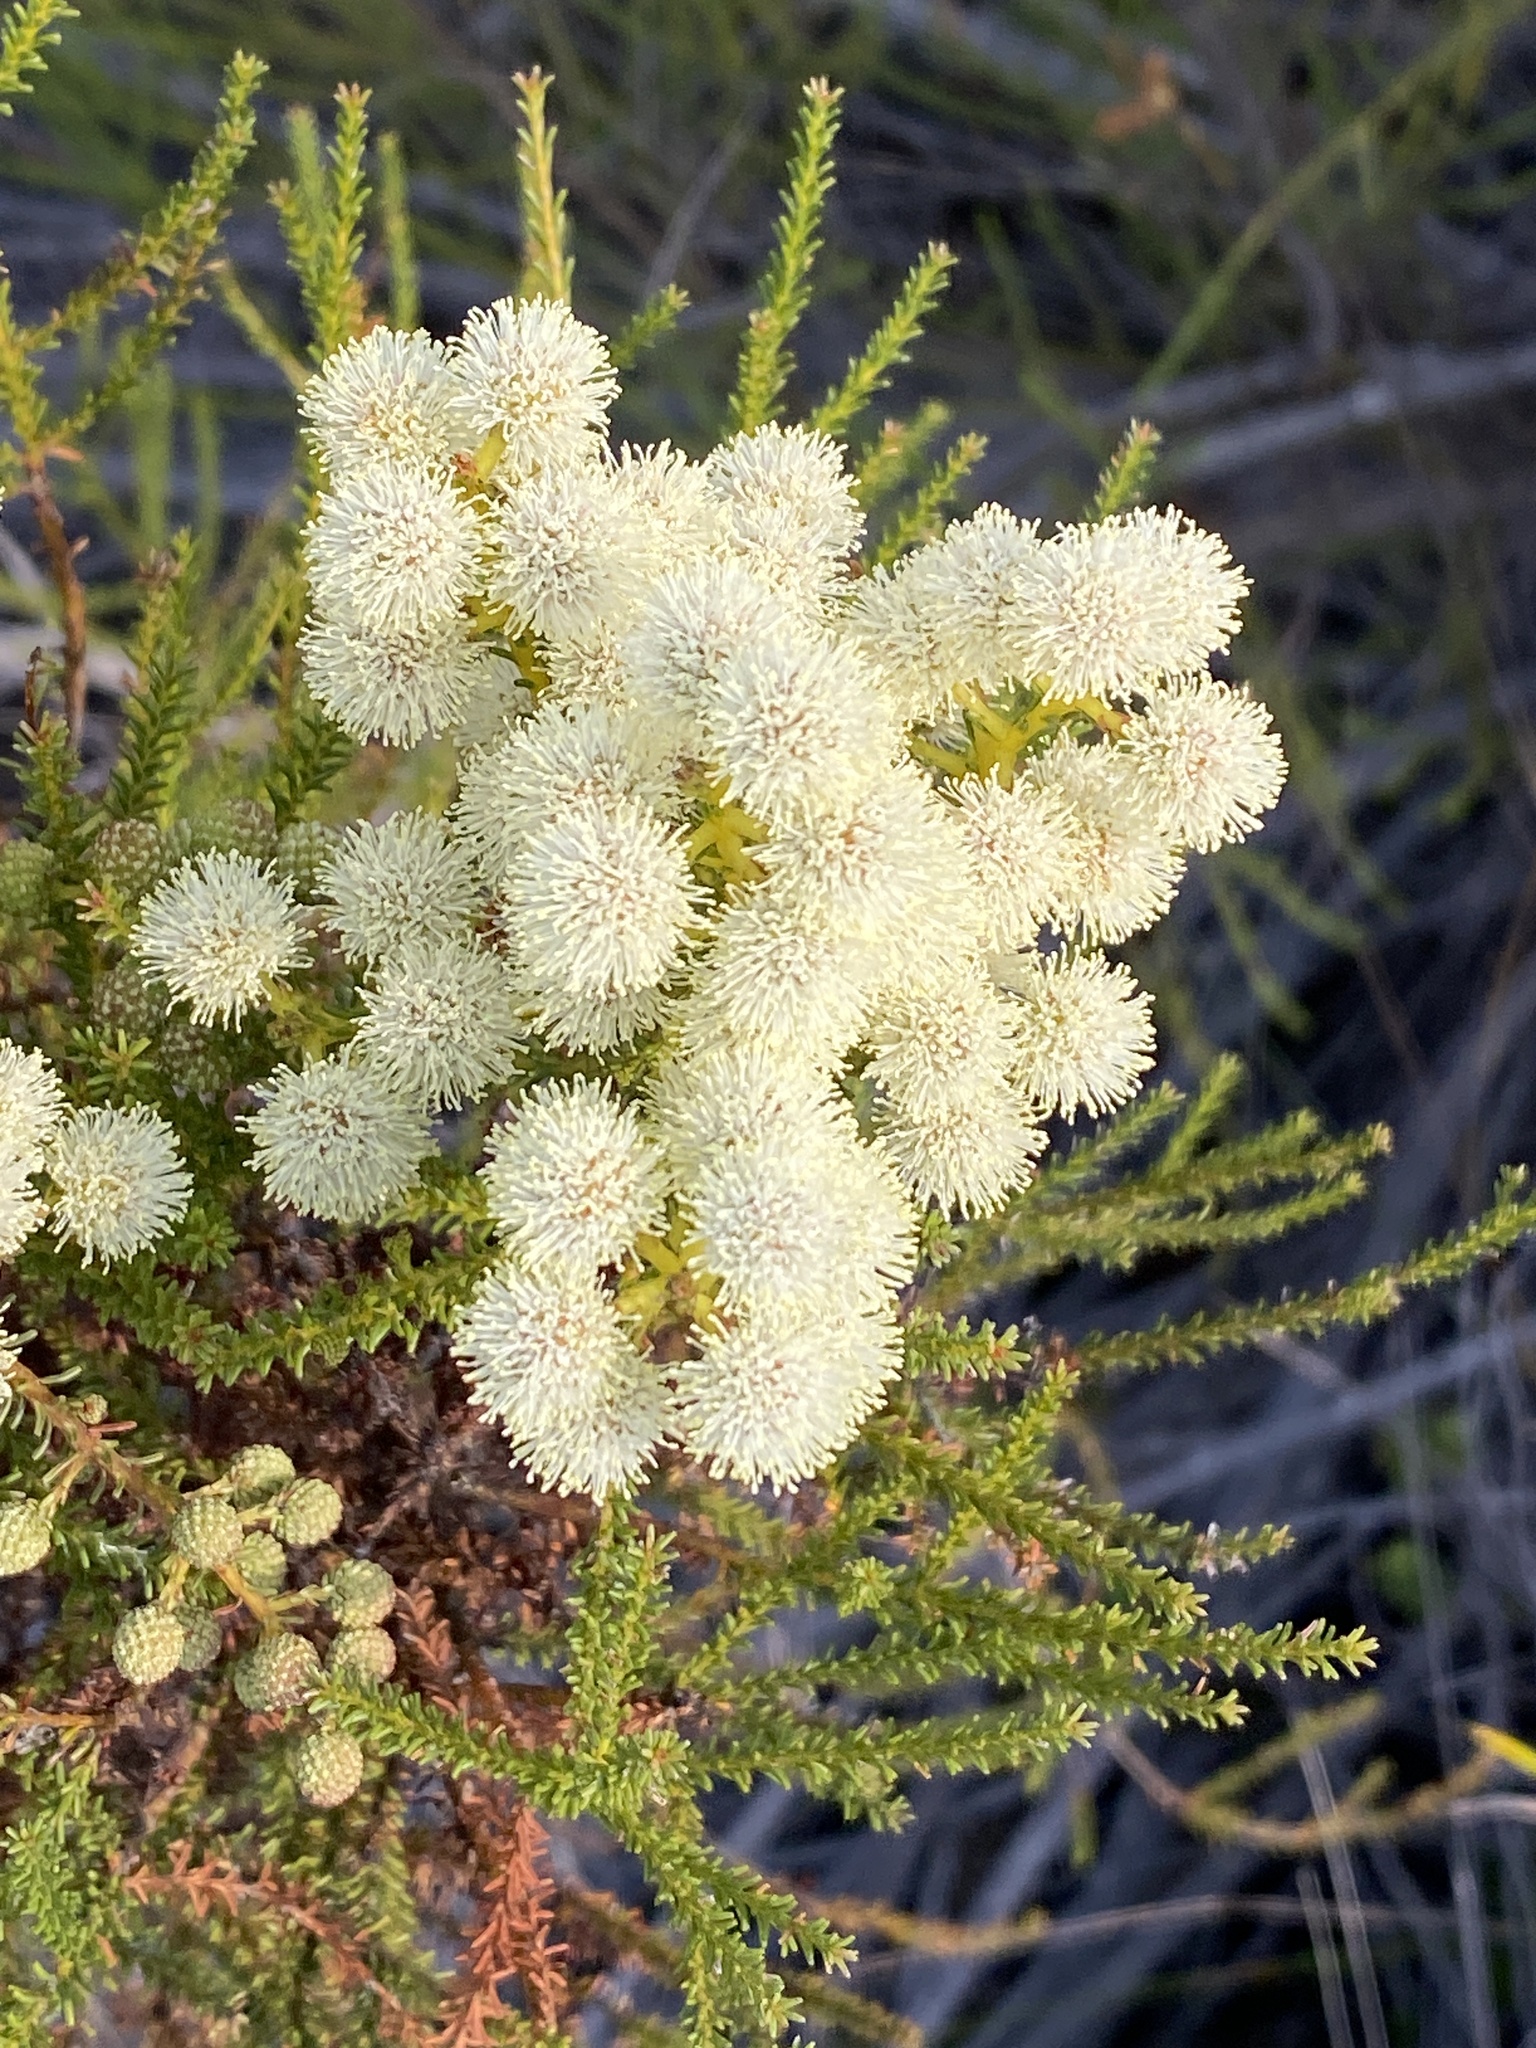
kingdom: Plantae
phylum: Tracheophyta
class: Magnoliopsida
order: Bruniales
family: Bruniaceae
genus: Berzelia
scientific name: Berzelia lanuginosa
